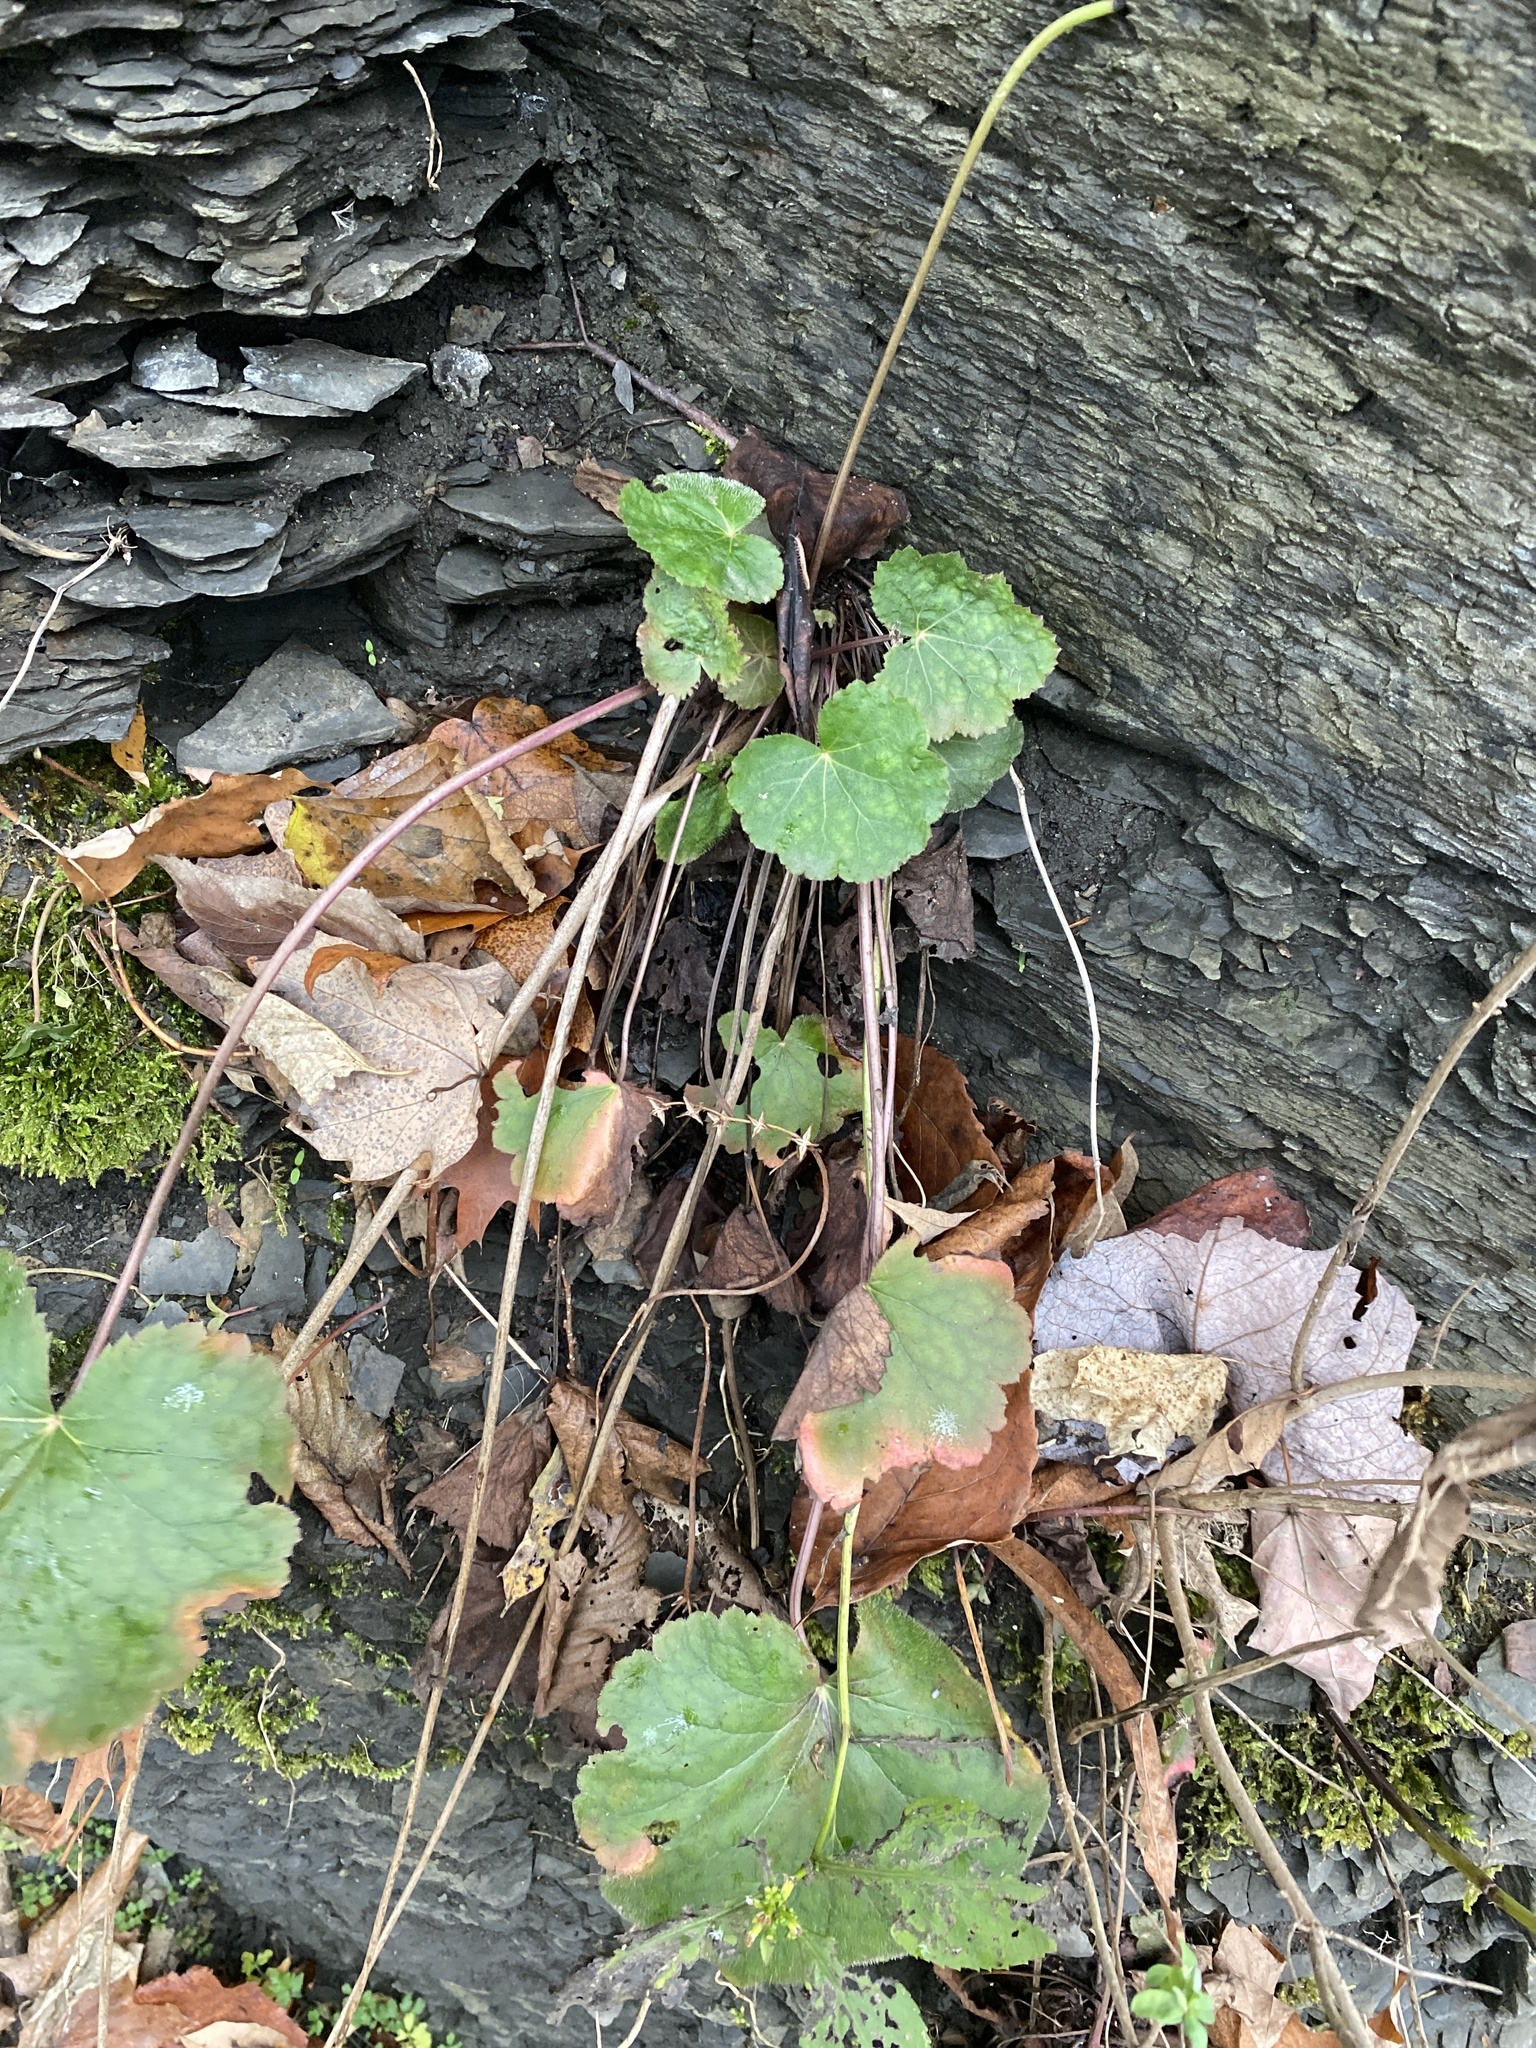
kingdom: Plantae
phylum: Tracheophyta
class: Magnoliopsida
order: Saxifragales
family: Saxifragaceae
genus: Heuchera
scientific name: Heuchera americana
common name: Alumroot
